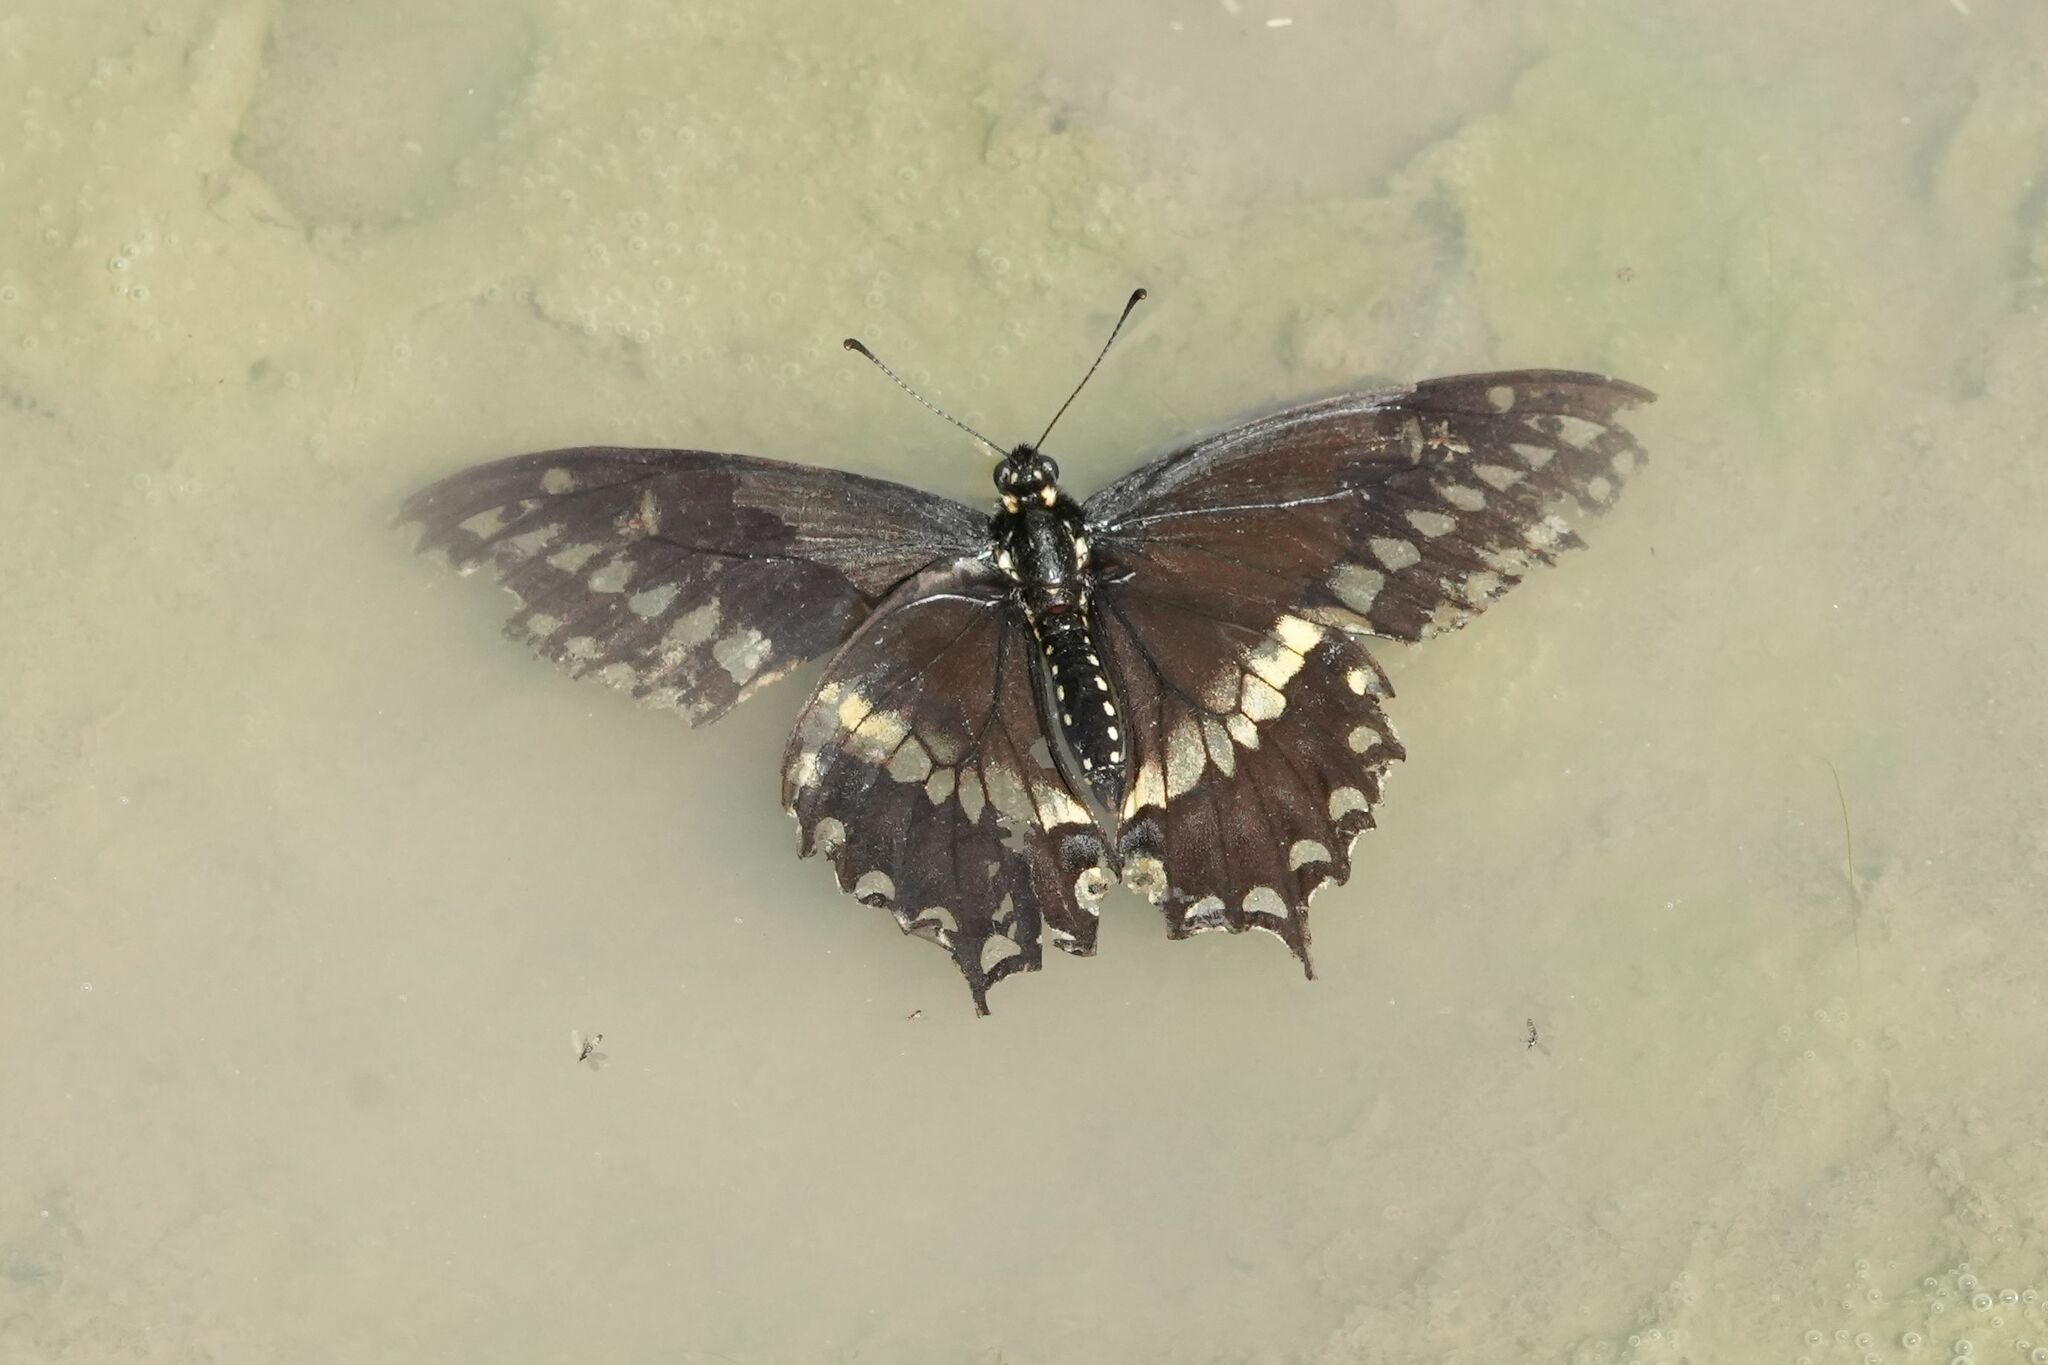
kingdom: Animalia
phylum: Arthropoda
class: Insecta
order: Lepidoptera
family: Papilionidae
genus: Papilio
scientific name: Papilio polyxenes
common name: Black swallowtail
